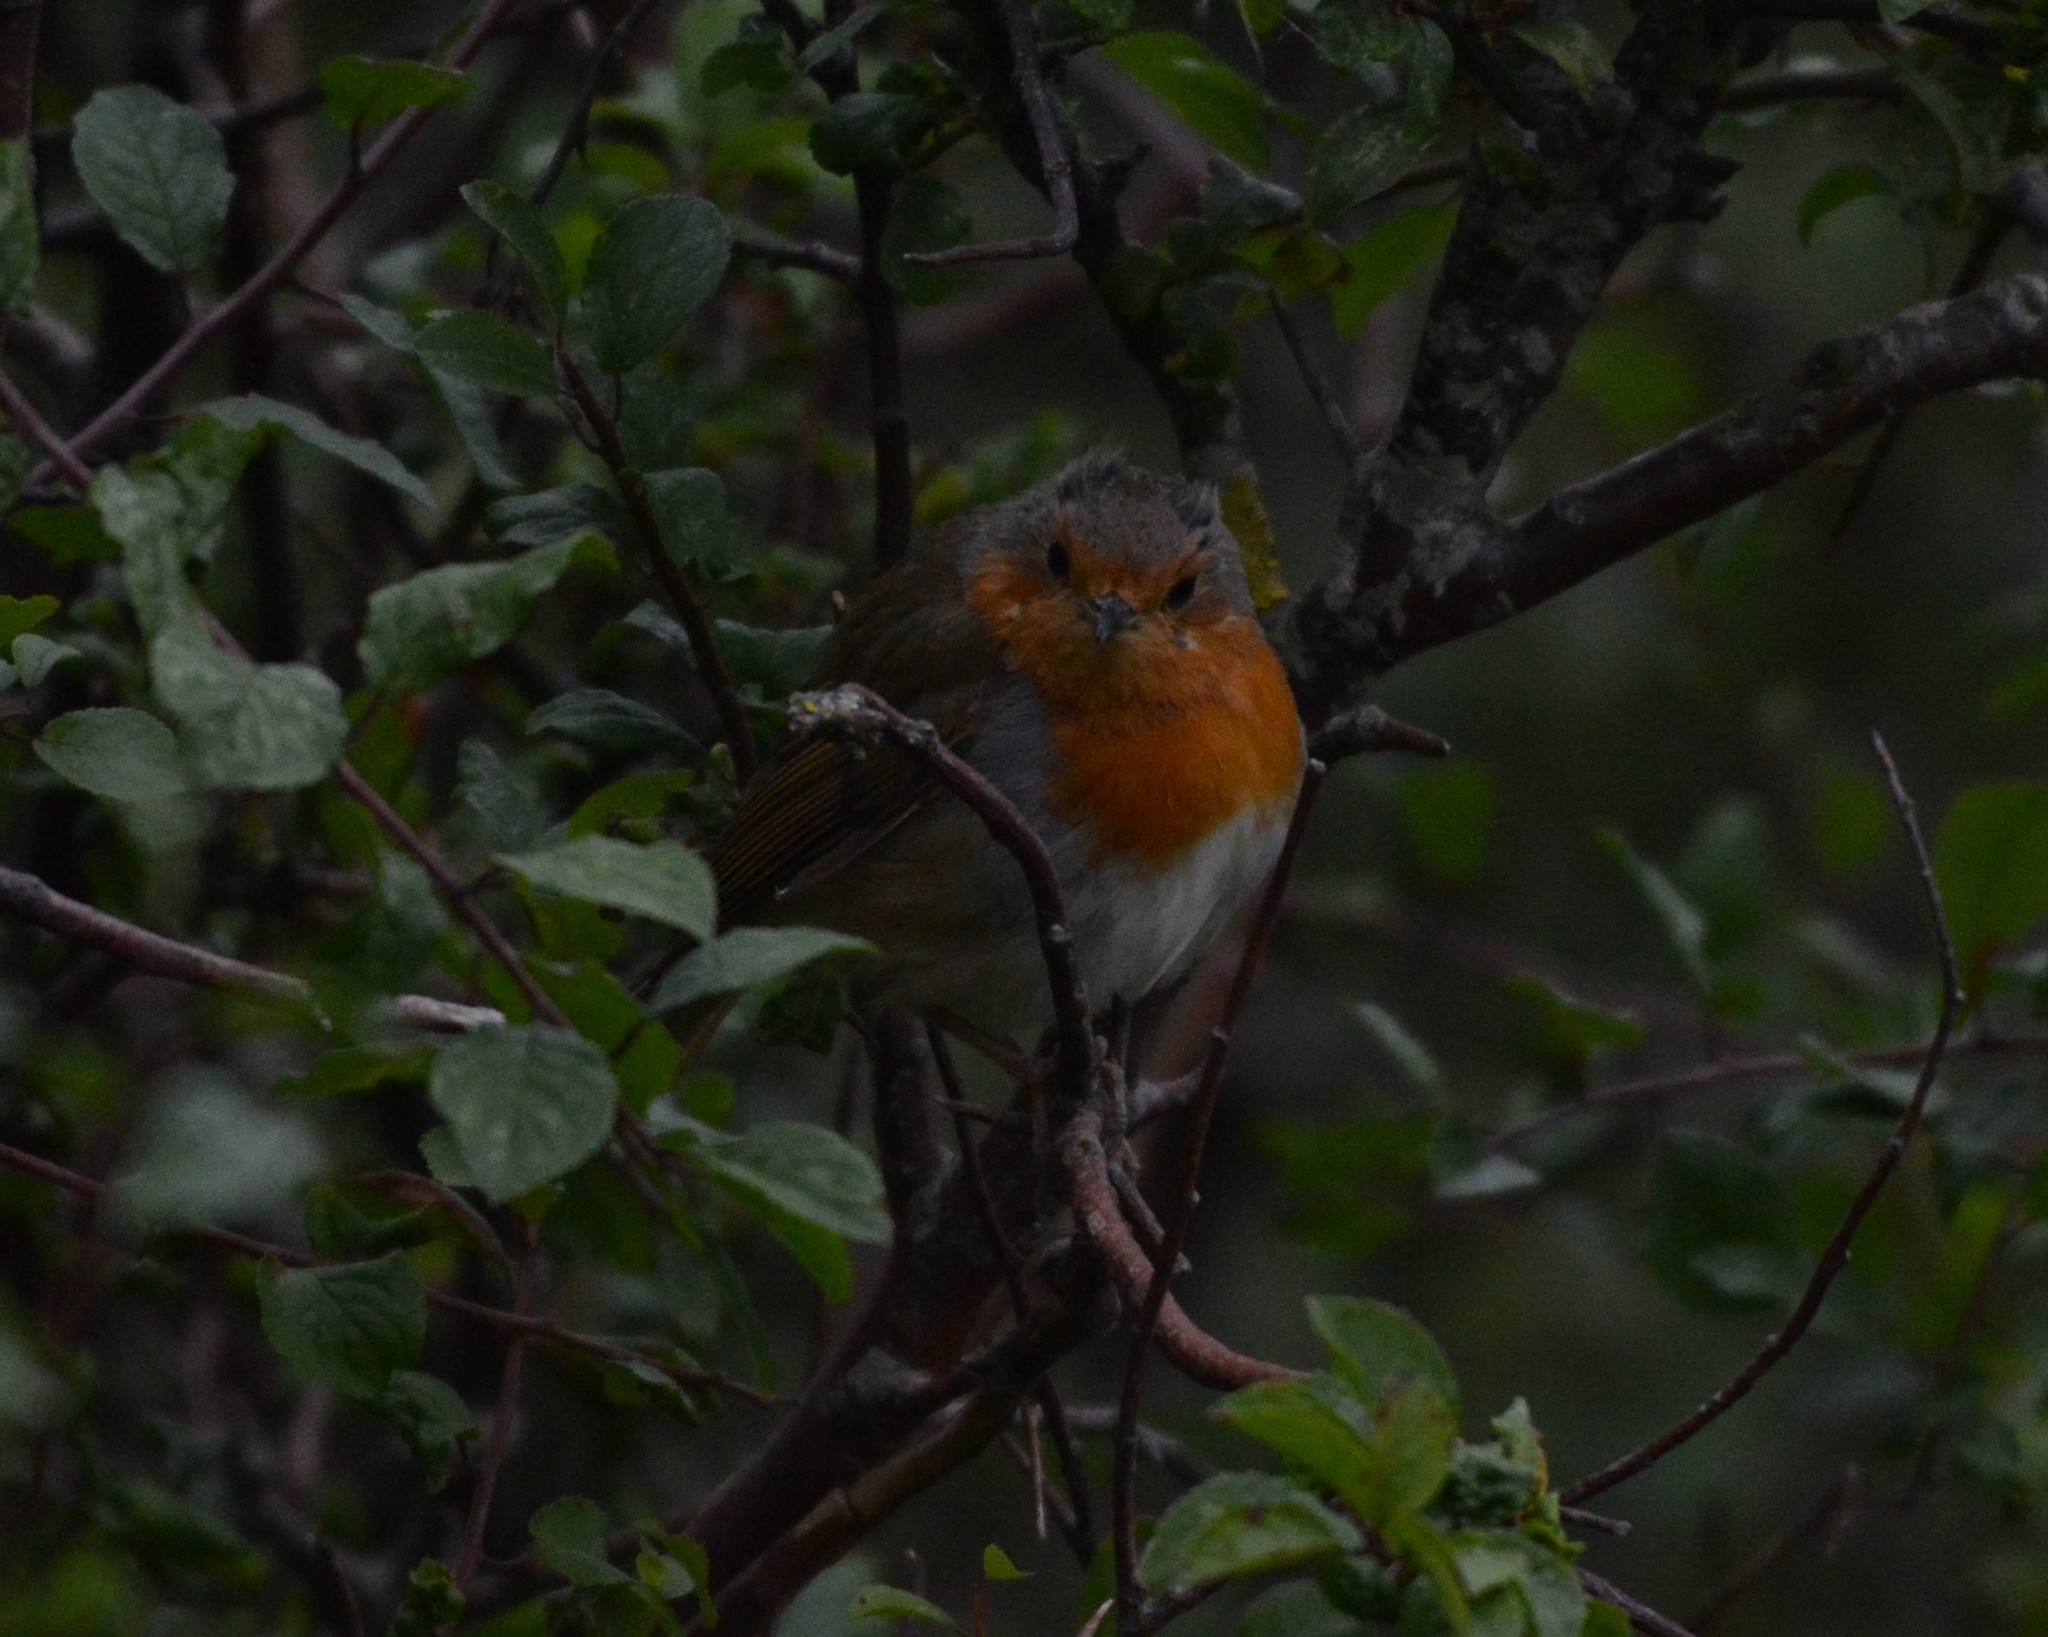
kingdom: Animalia
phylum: Chordata
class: Aves
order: Passeriformes
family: Muscicapidae
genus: Erithacus
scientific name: Erithacus rubecula
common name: European robin
